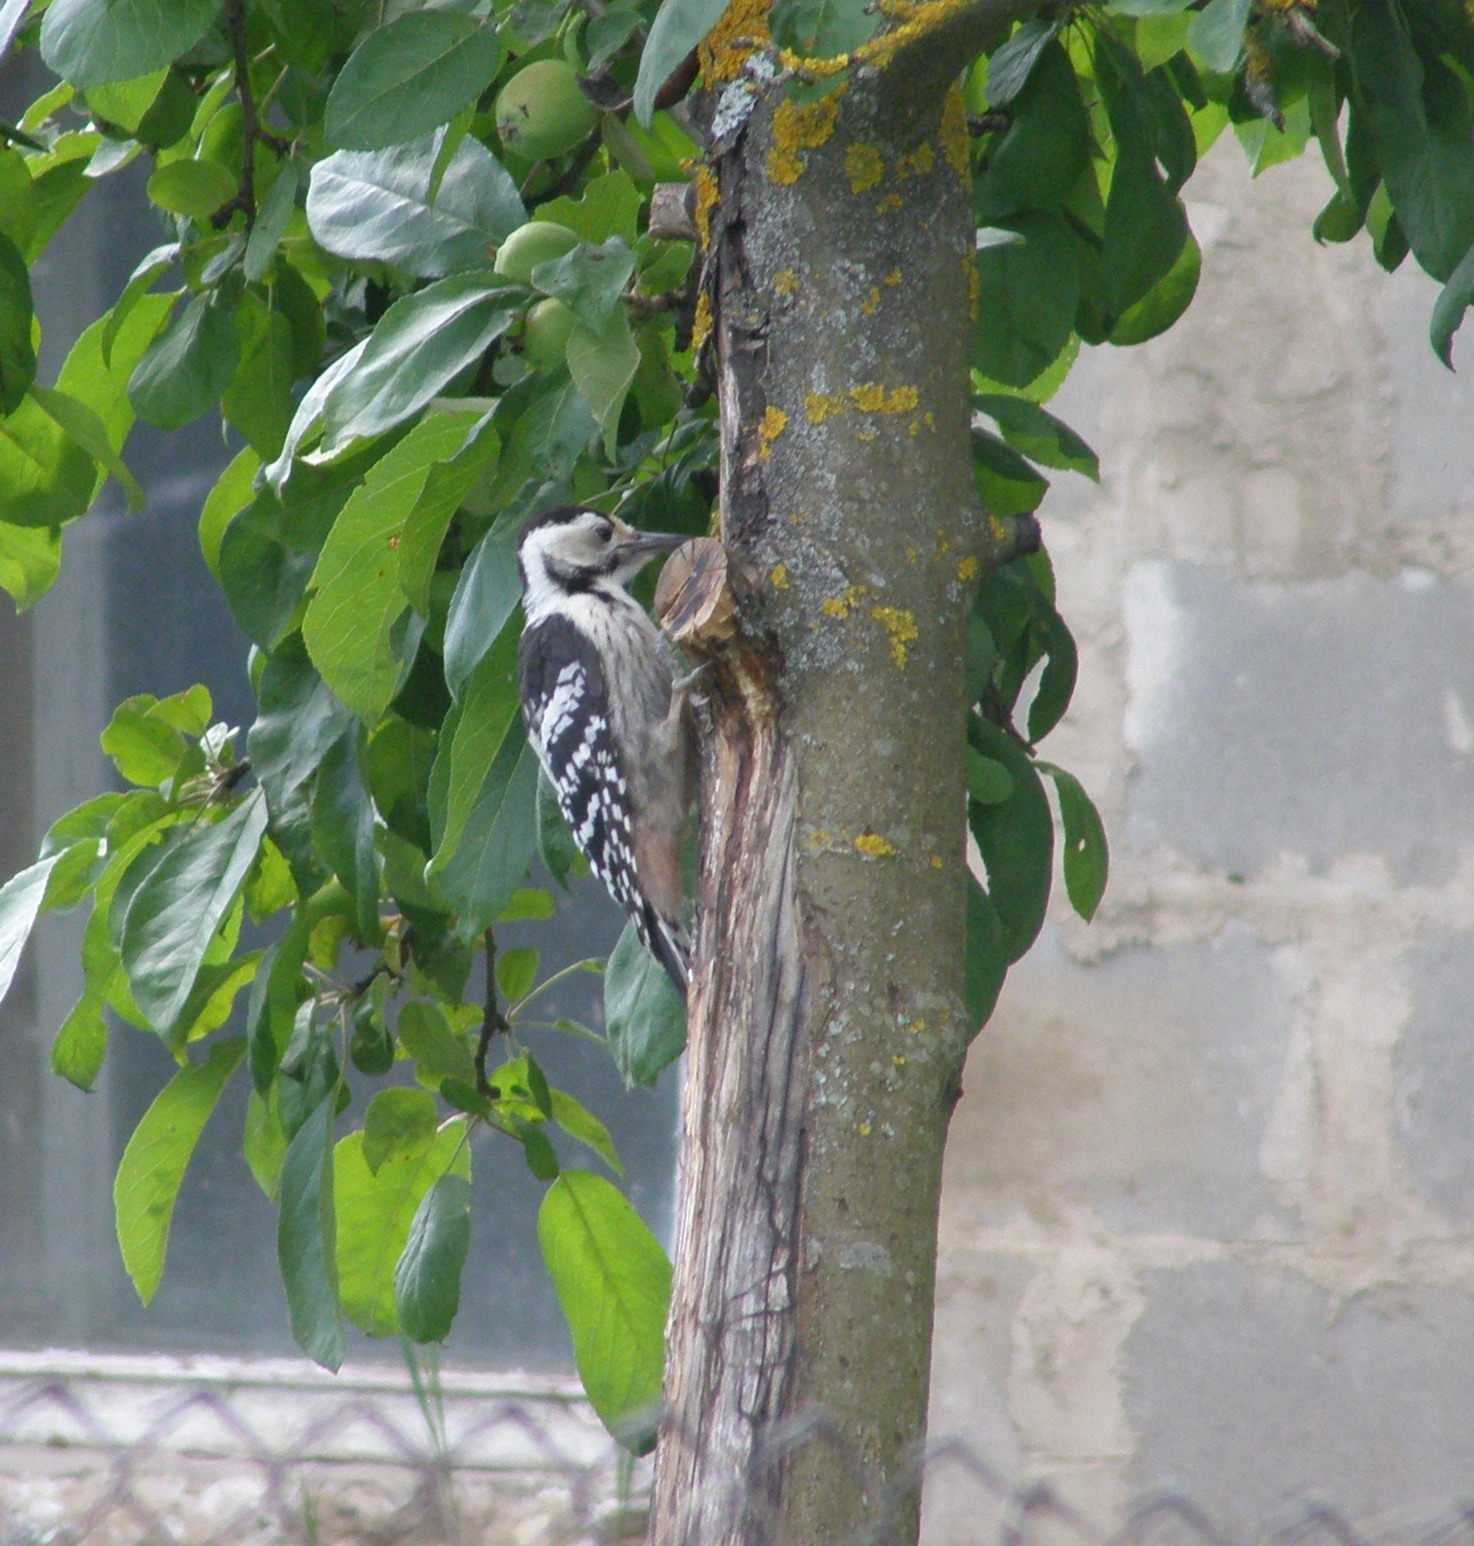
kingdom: Animalia
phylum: Chordata
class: Aves
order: Piciformes
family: Picidae
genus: Dendrocopos
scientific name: Dendrocopos leucotos
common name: White-backed woodpecker
